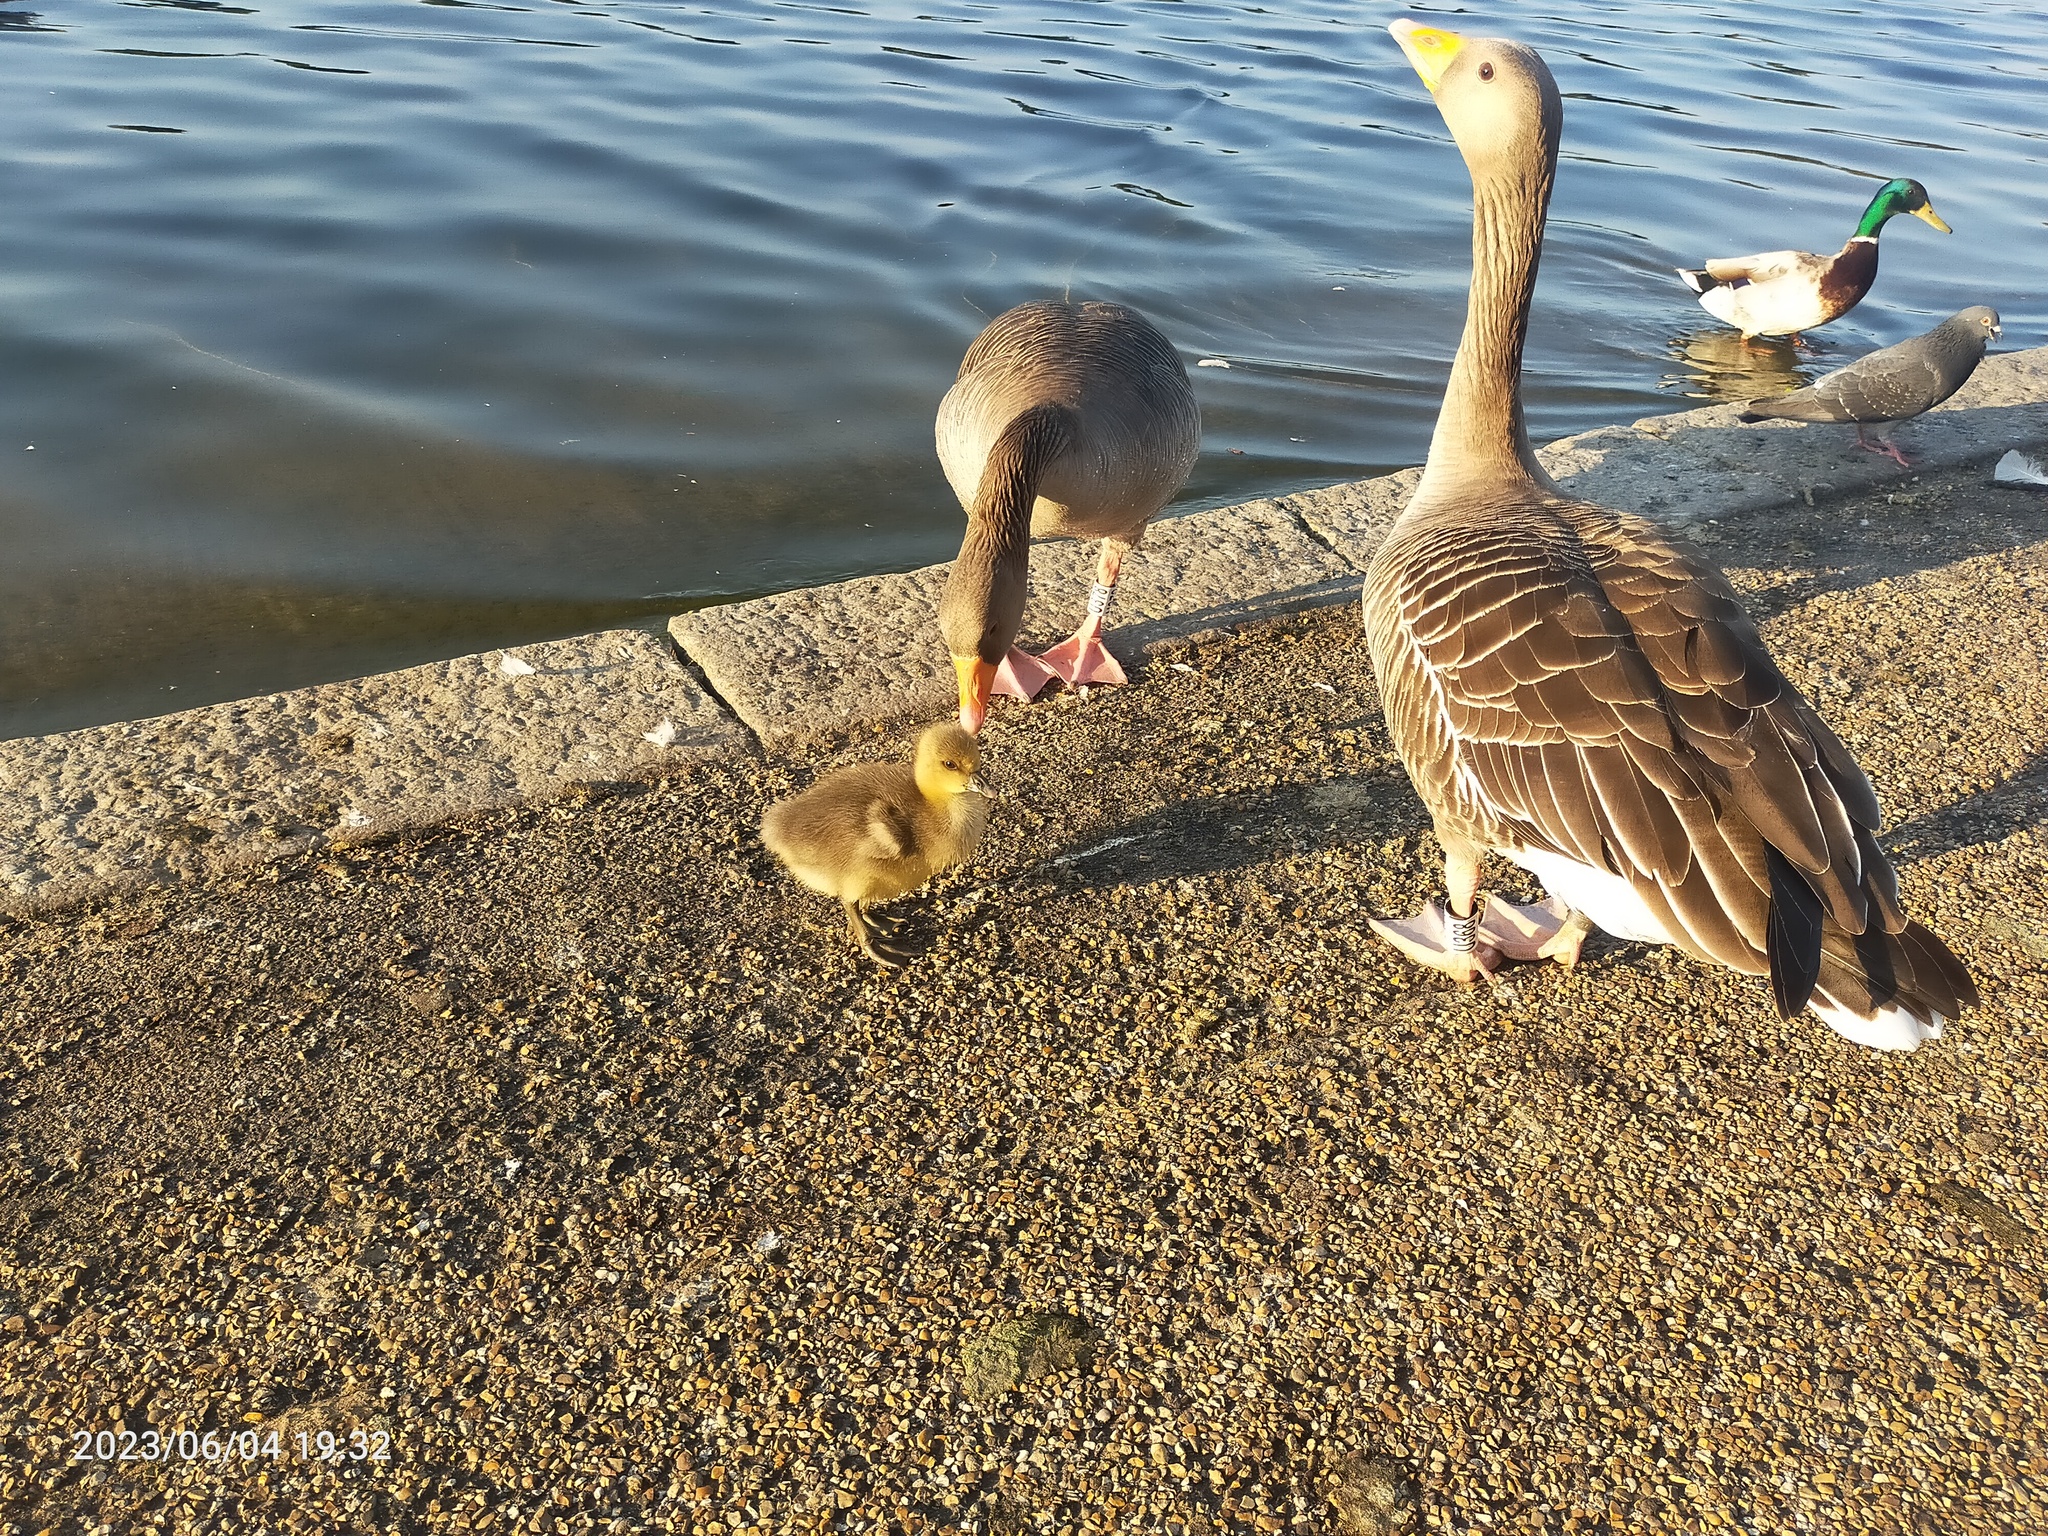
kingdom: Animalia
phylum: Chordata
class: Aves
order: Anseriformes
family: Anatidae
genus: Anser
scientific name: Anser anser
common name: Greylag goose
